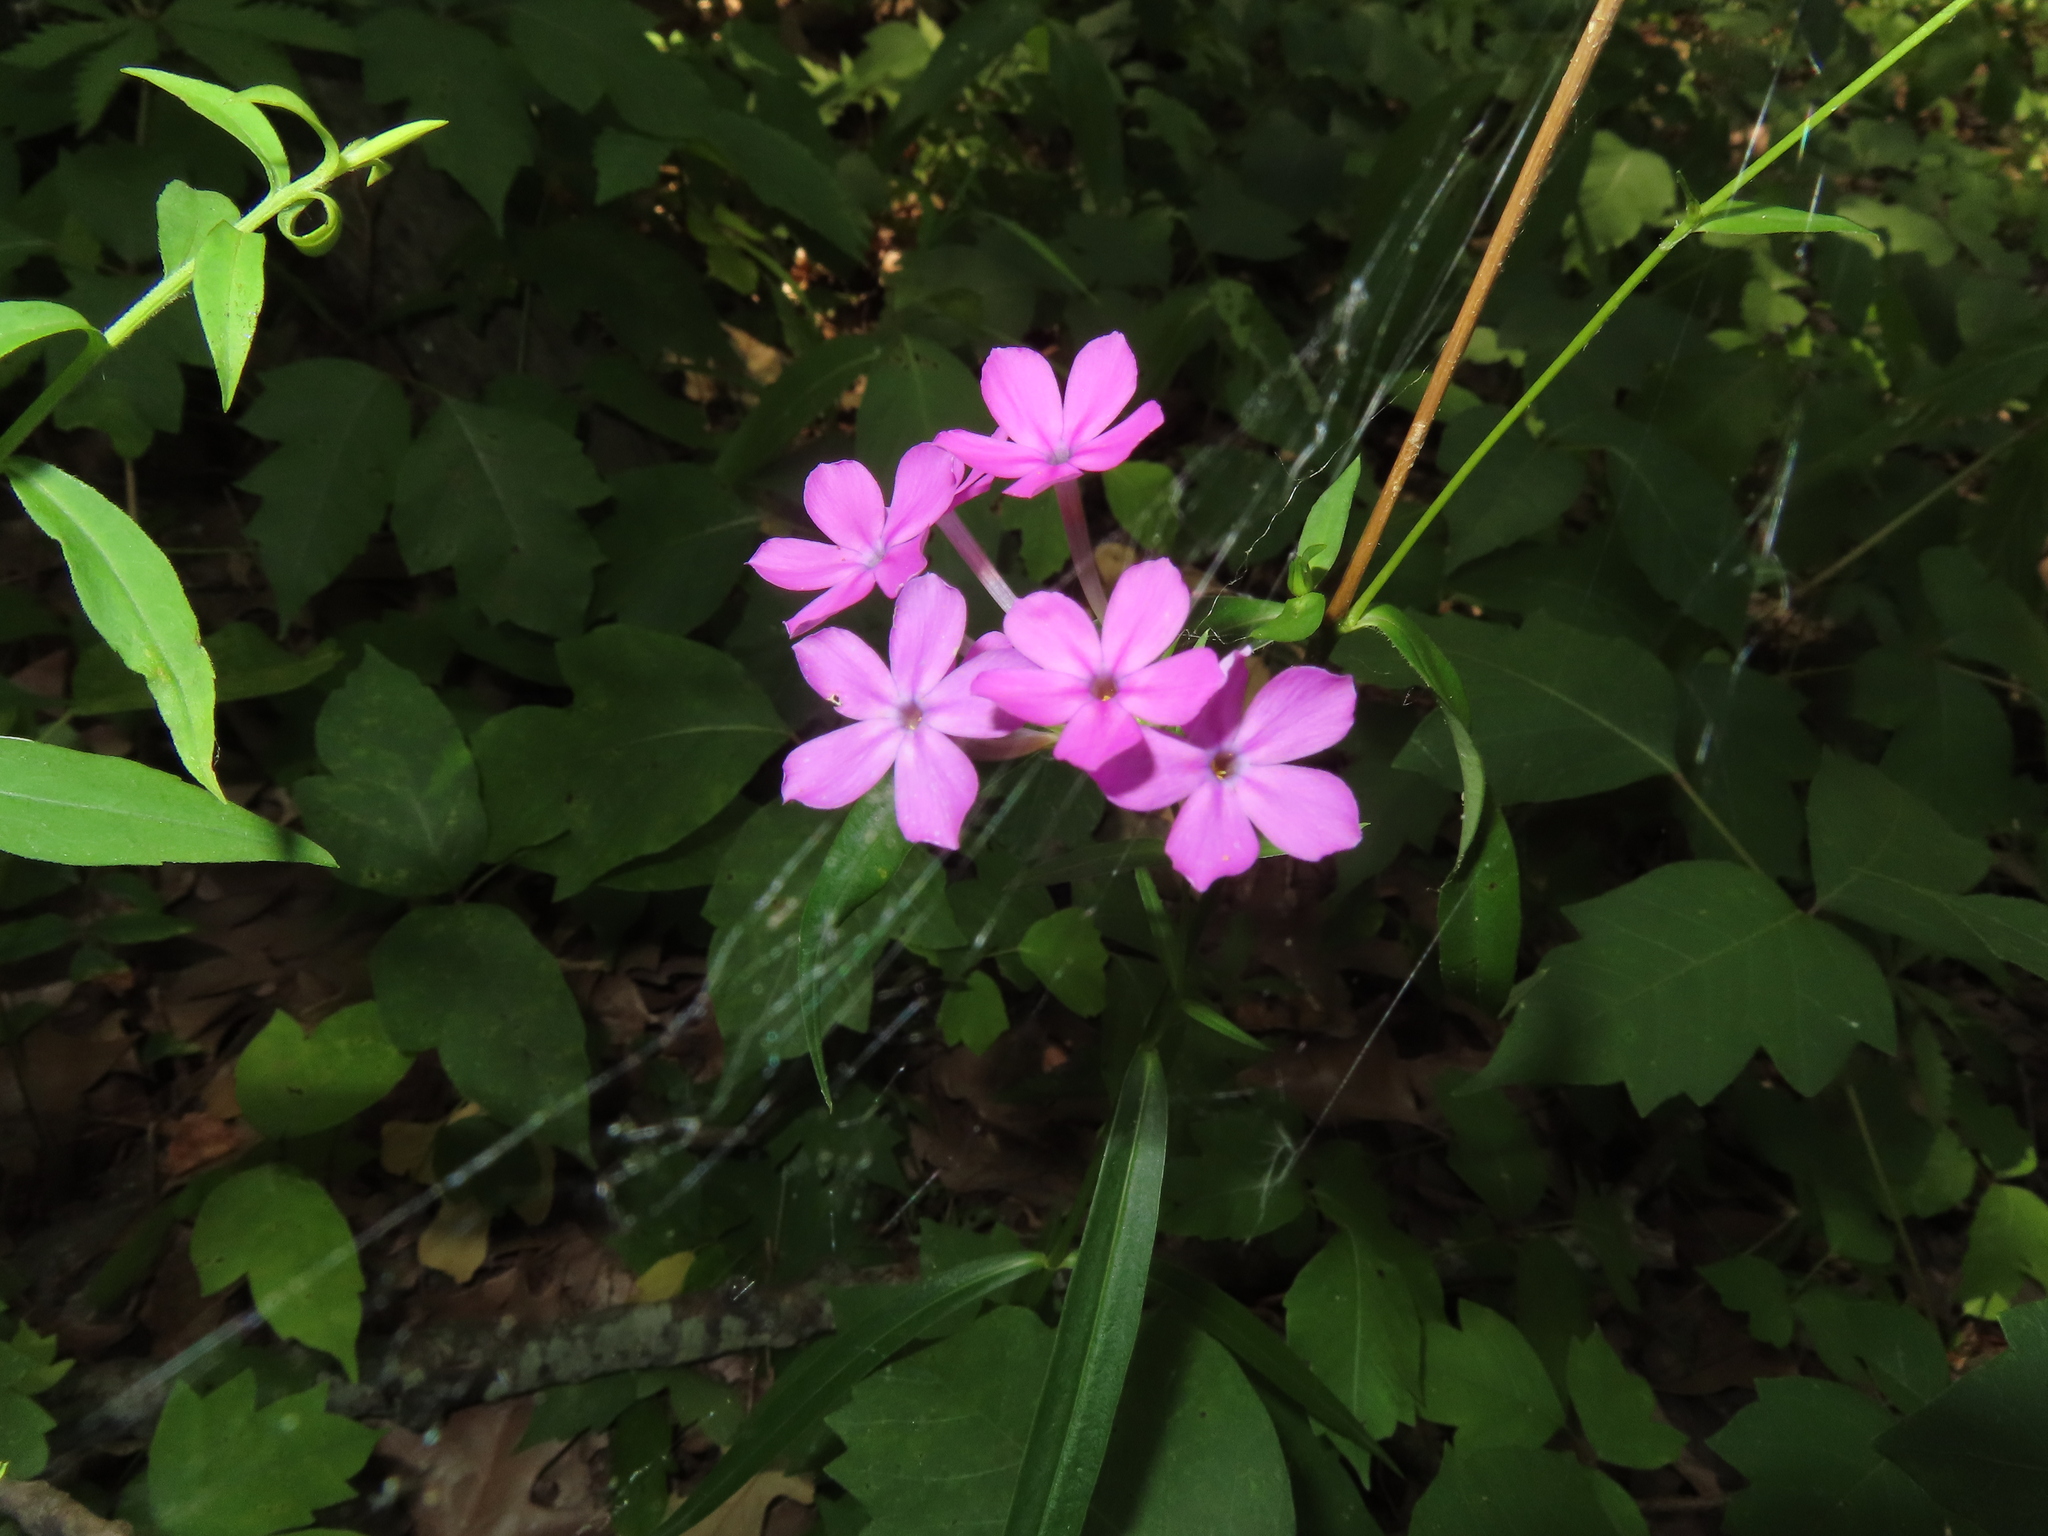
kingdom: Plantae
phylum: Tracheophyta
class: Magnoliopsida
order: Ericales
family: Polemoniaceae
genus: Phlox
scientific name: Phlox glaberrima
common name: Smooth phlox
